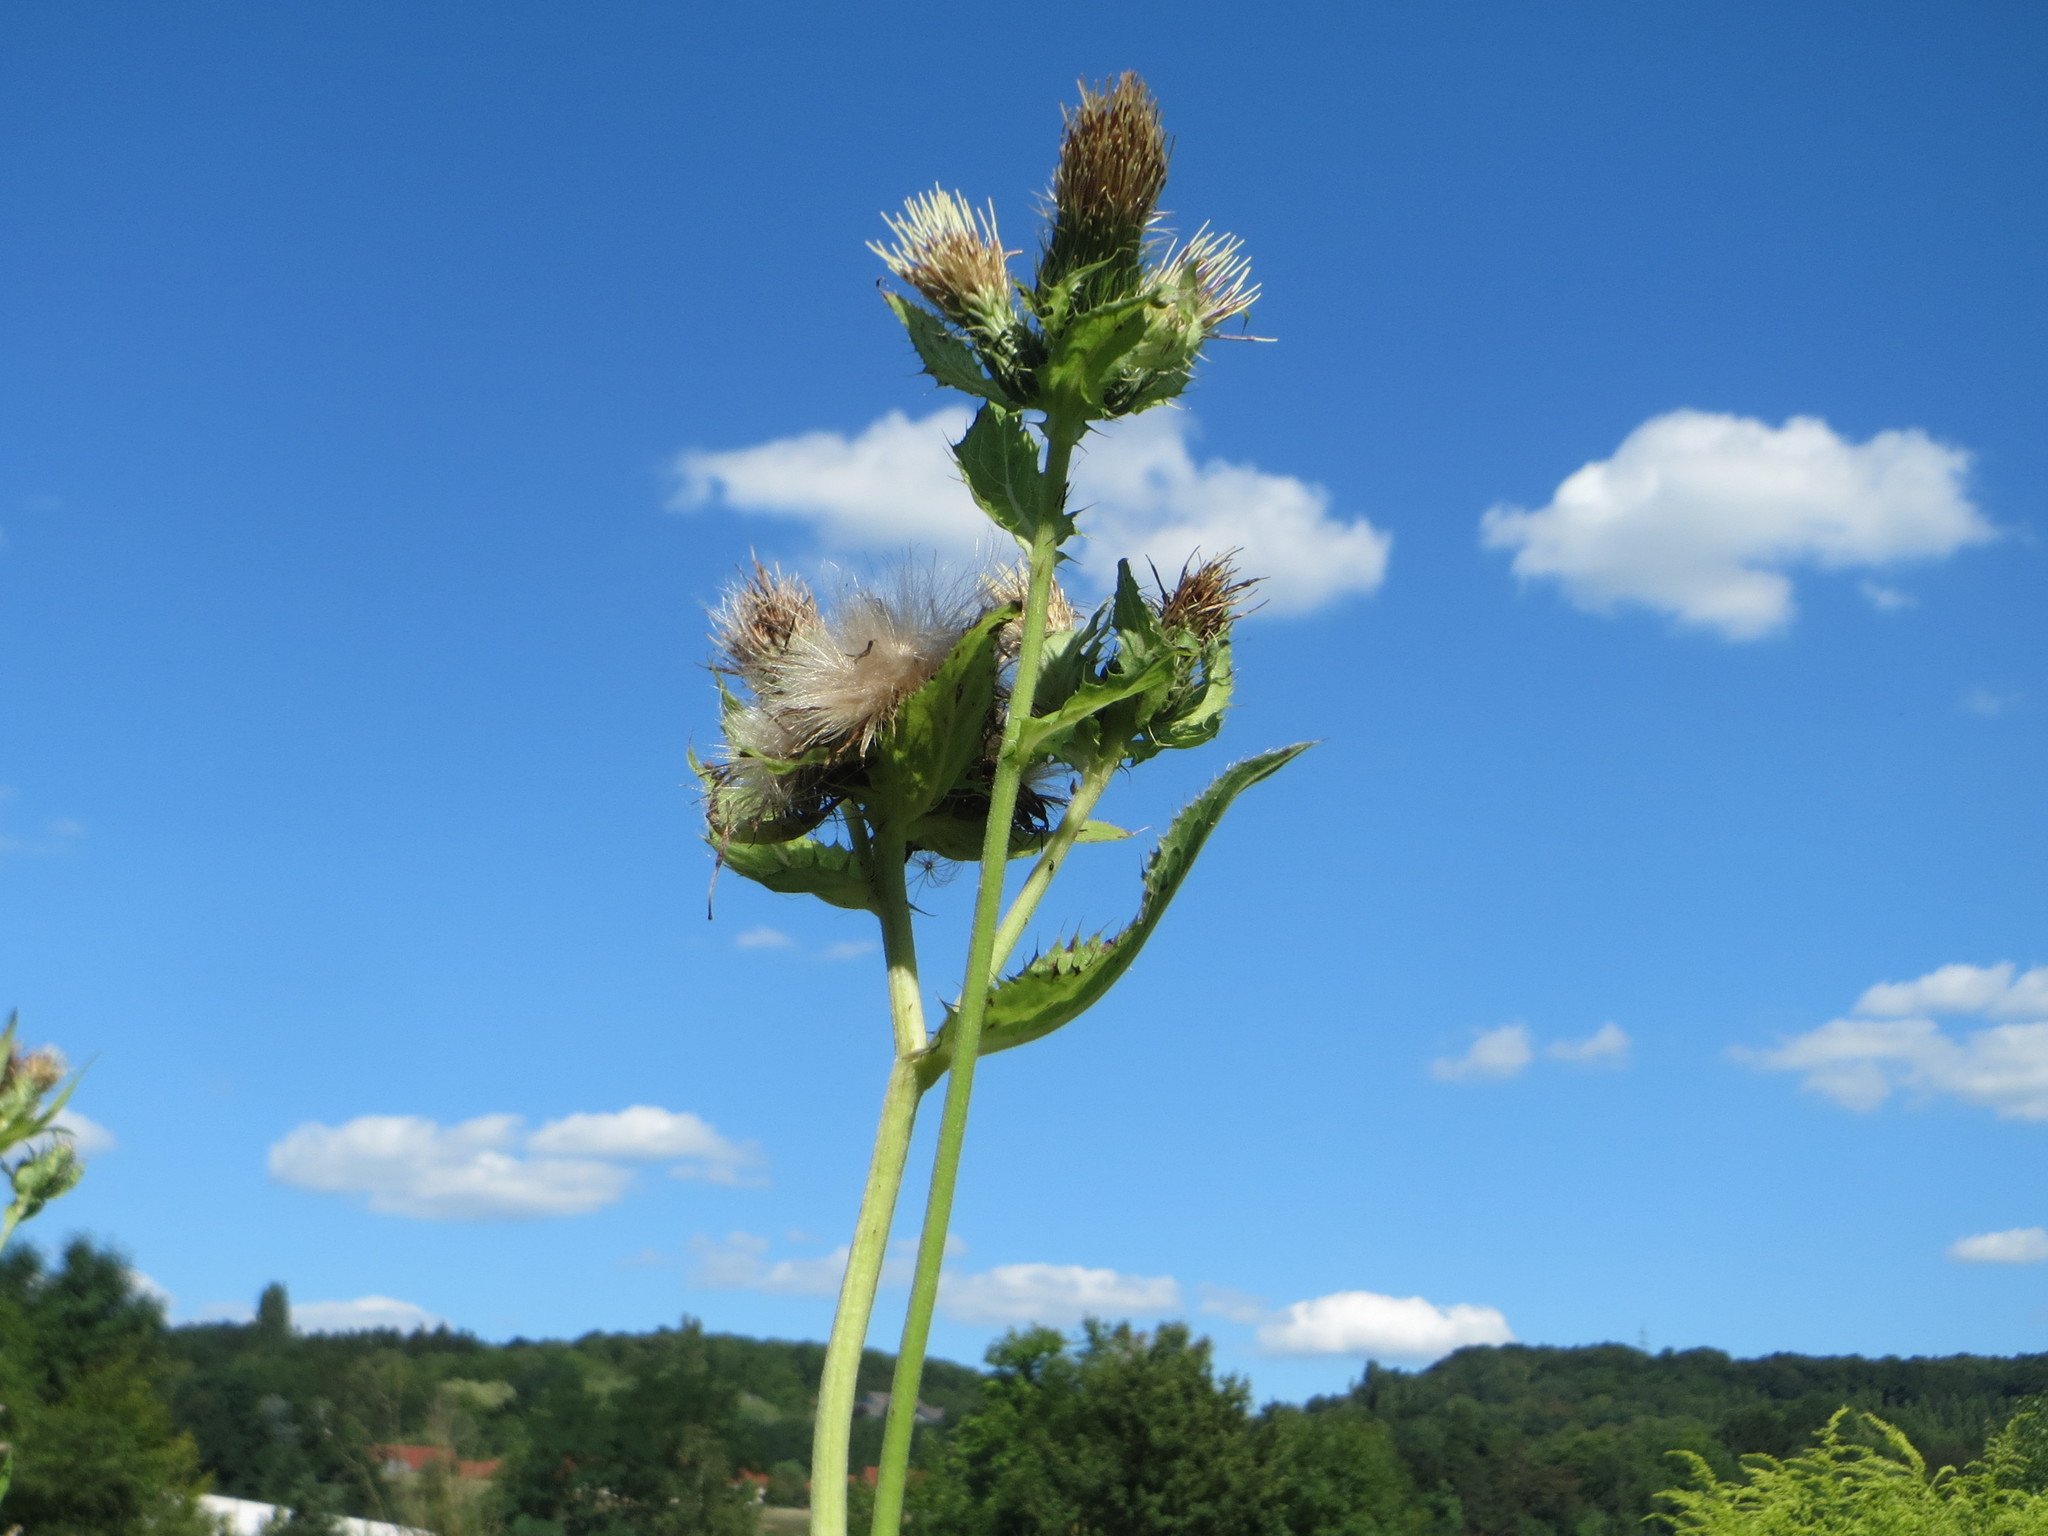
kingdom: Plantae
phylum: Tracheophyta
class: Magnoliopsida
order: Asterales
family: Asteraceae
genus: Cirsium
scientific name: Cirsium oleraceum
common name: Cabbage thistle
